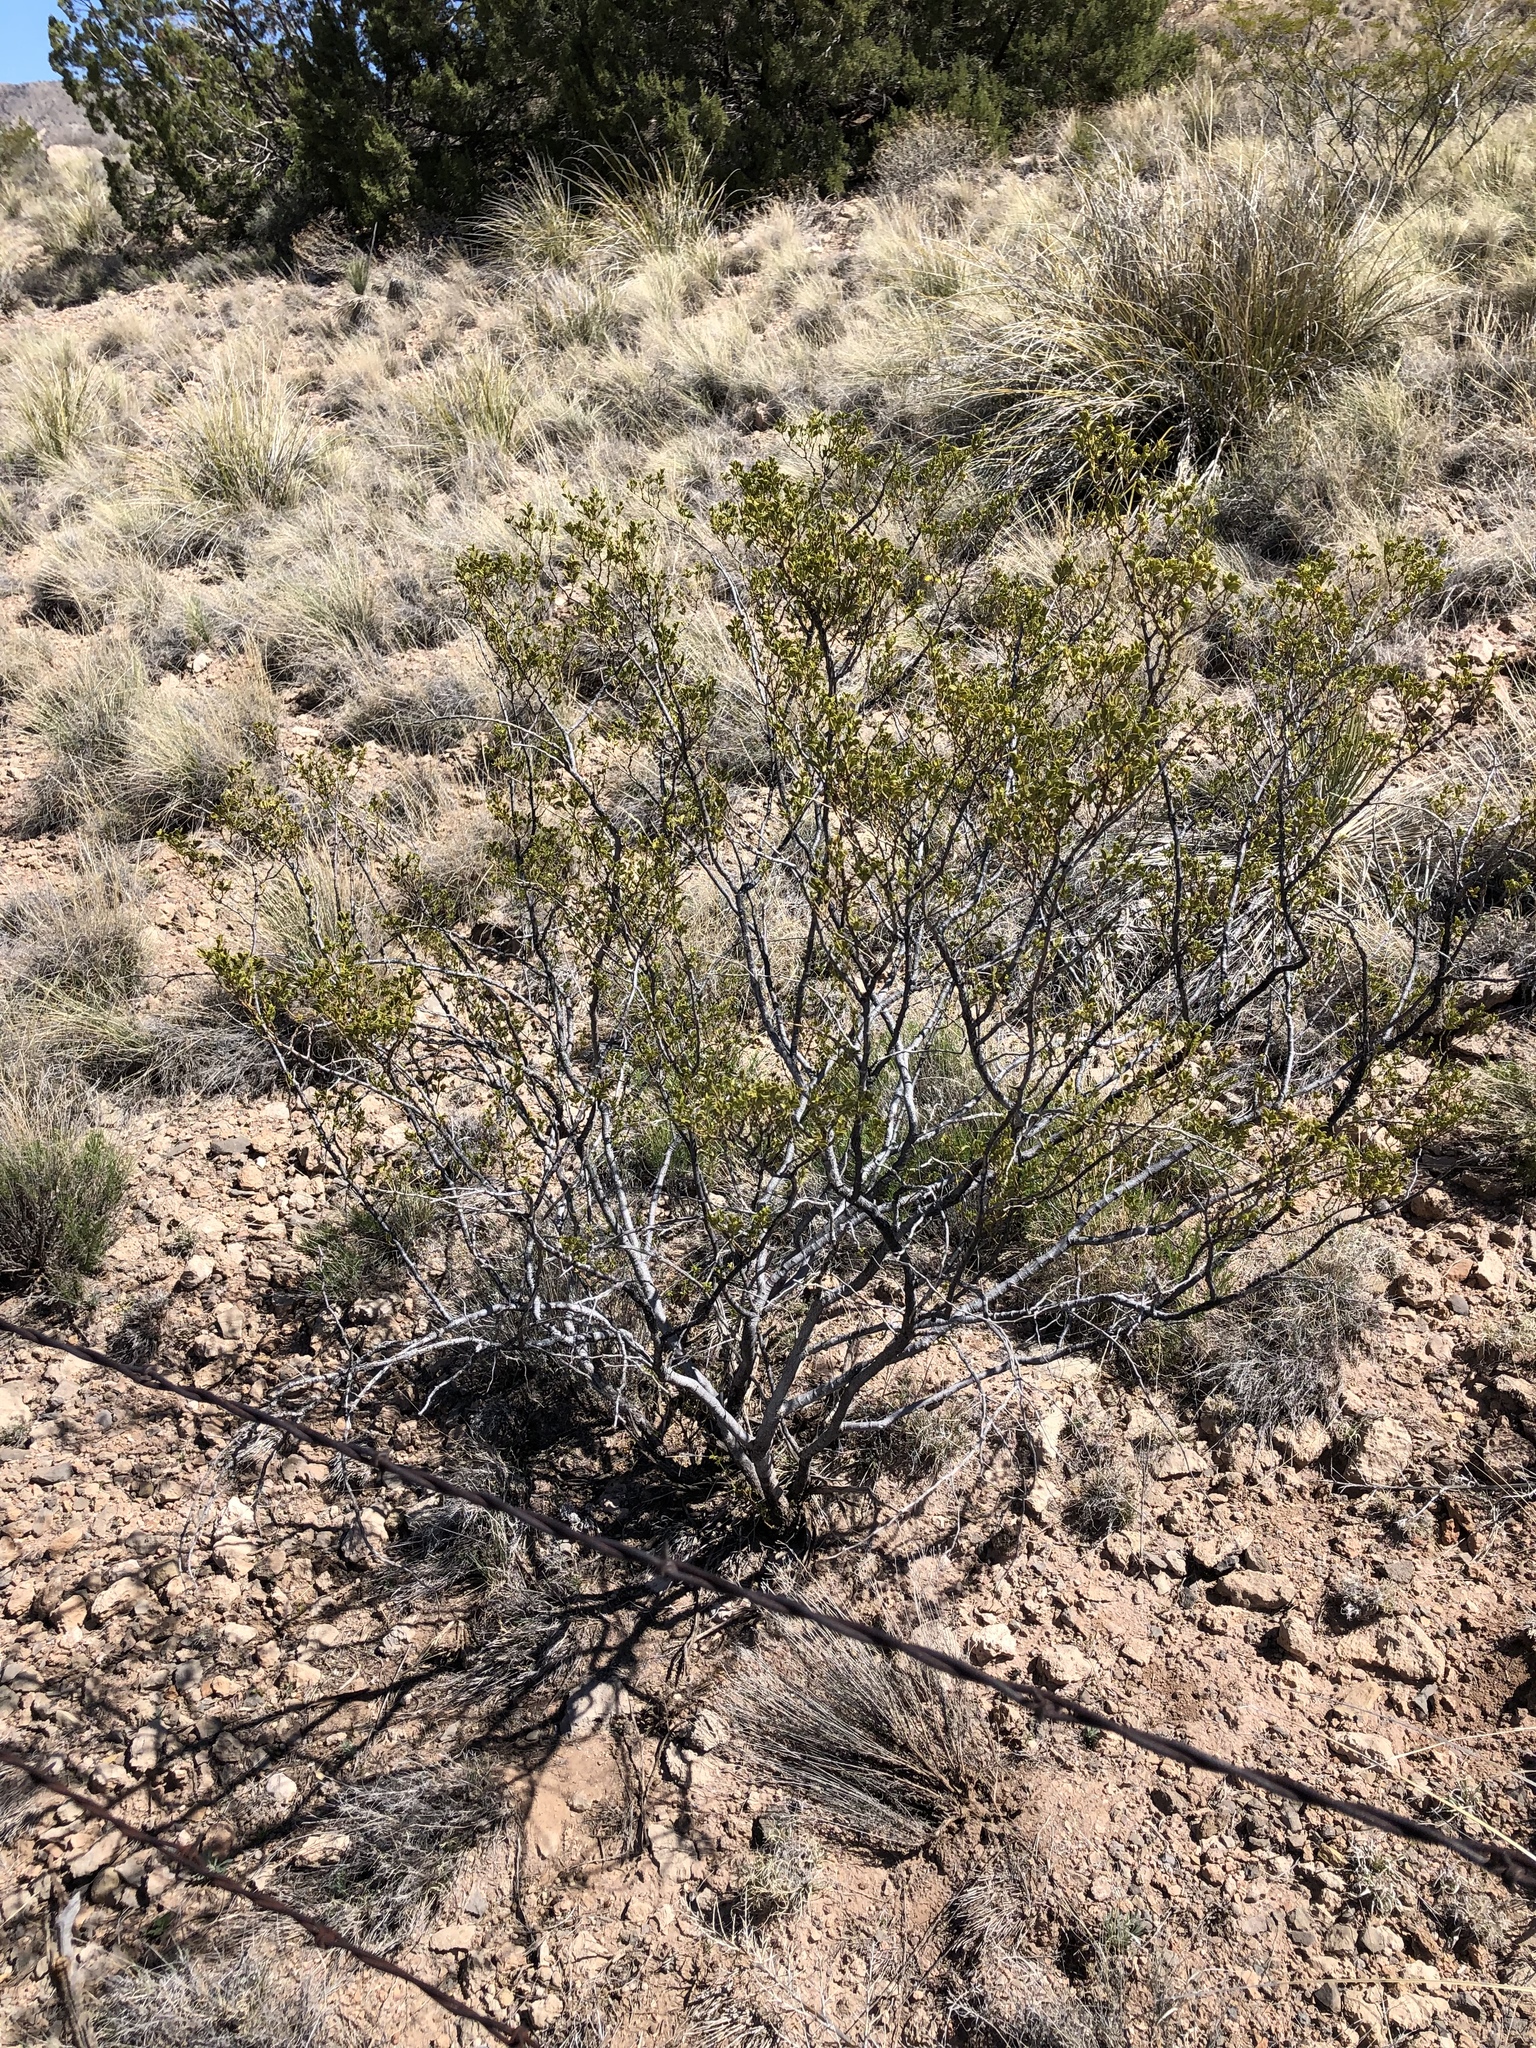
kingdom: Plantae
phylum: Tracheophyta
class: Magnoliopsida
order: Zygophyllales
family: Zygophyllaceae
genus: Larrea
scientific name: Larrea tridentata
